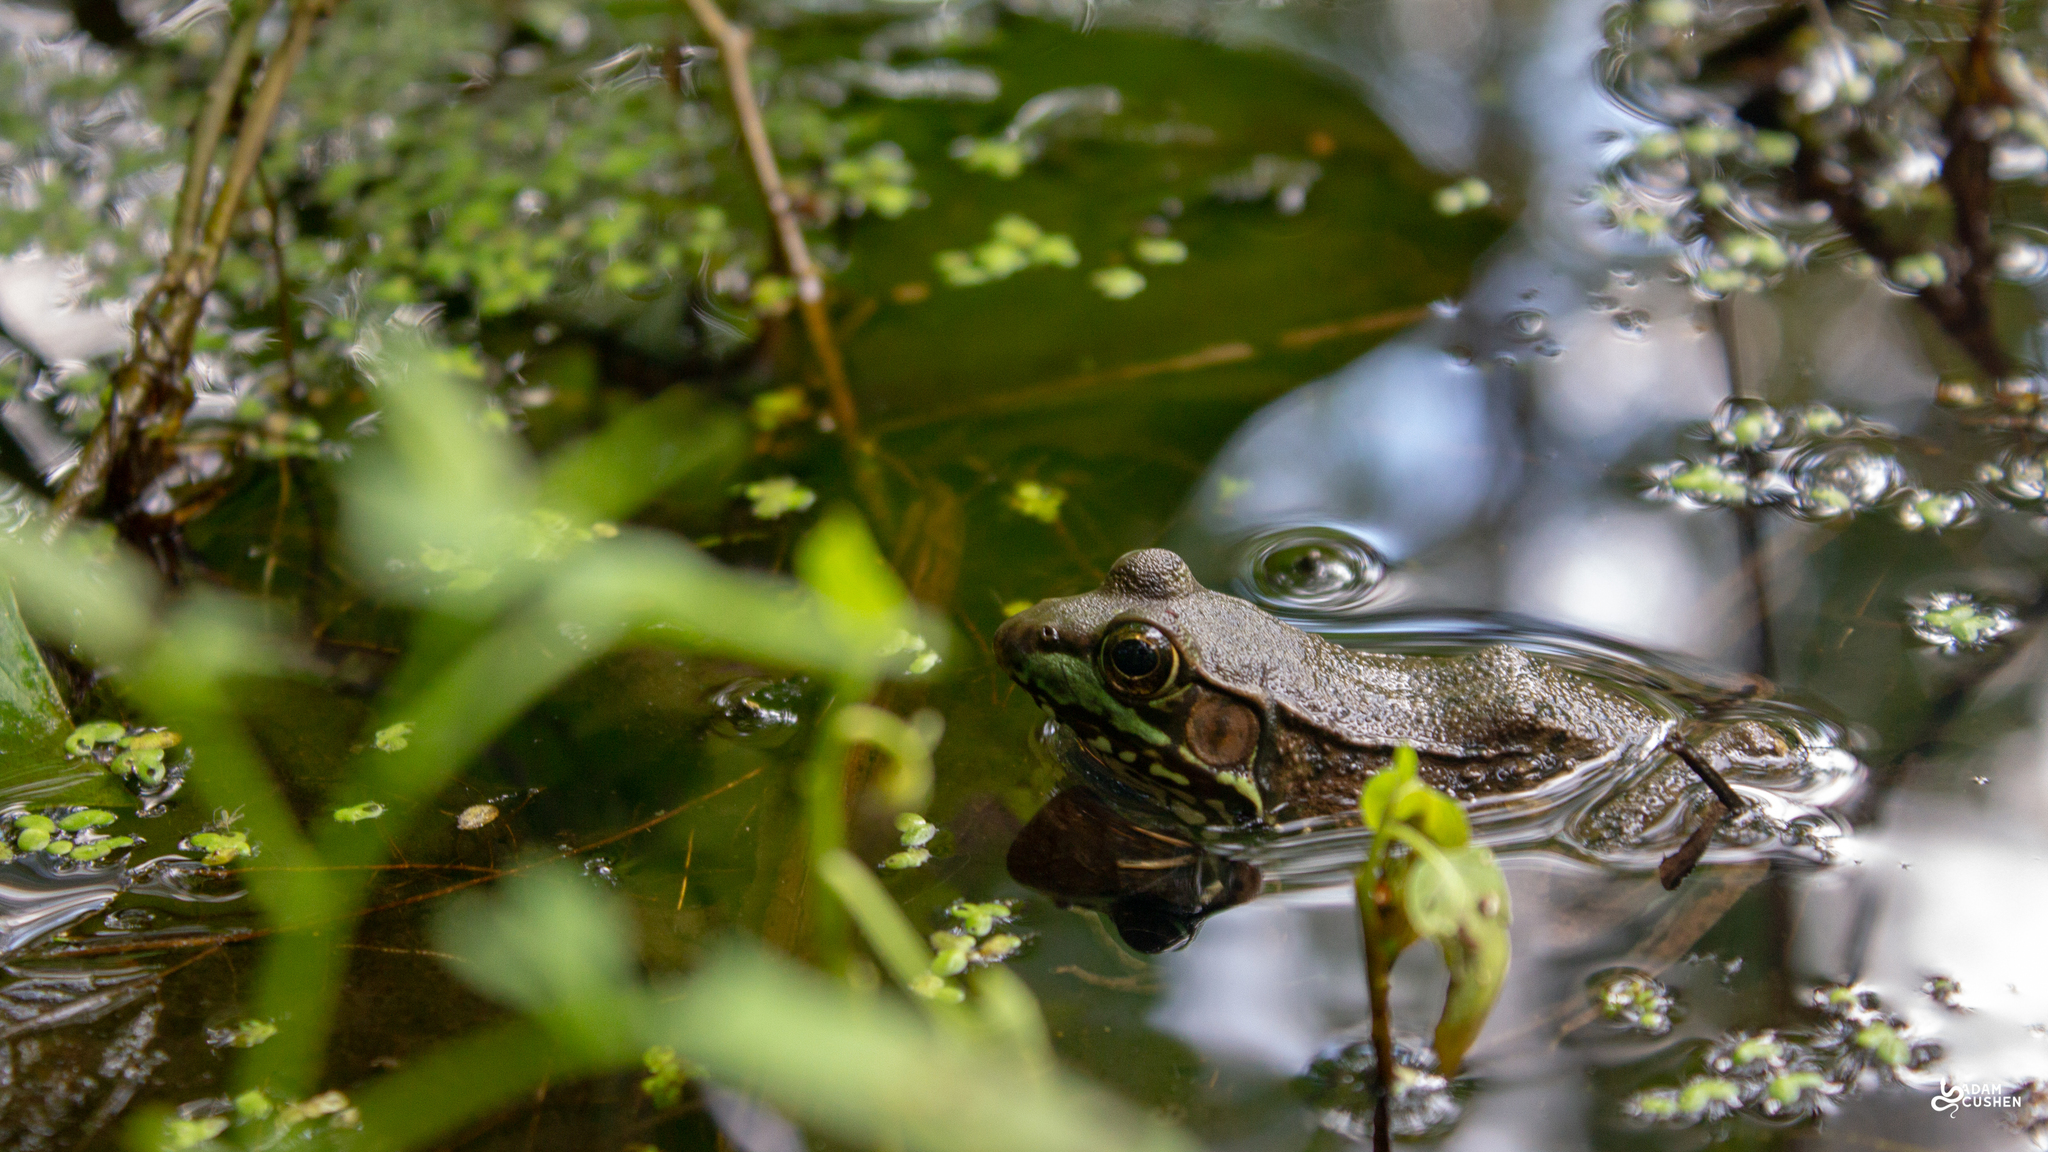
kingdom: Animalia
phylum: Chordata
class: Amphibia
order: Anura
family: Ranidae
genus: Lithobates
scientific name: Lithobates clamitans
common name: Green frog
